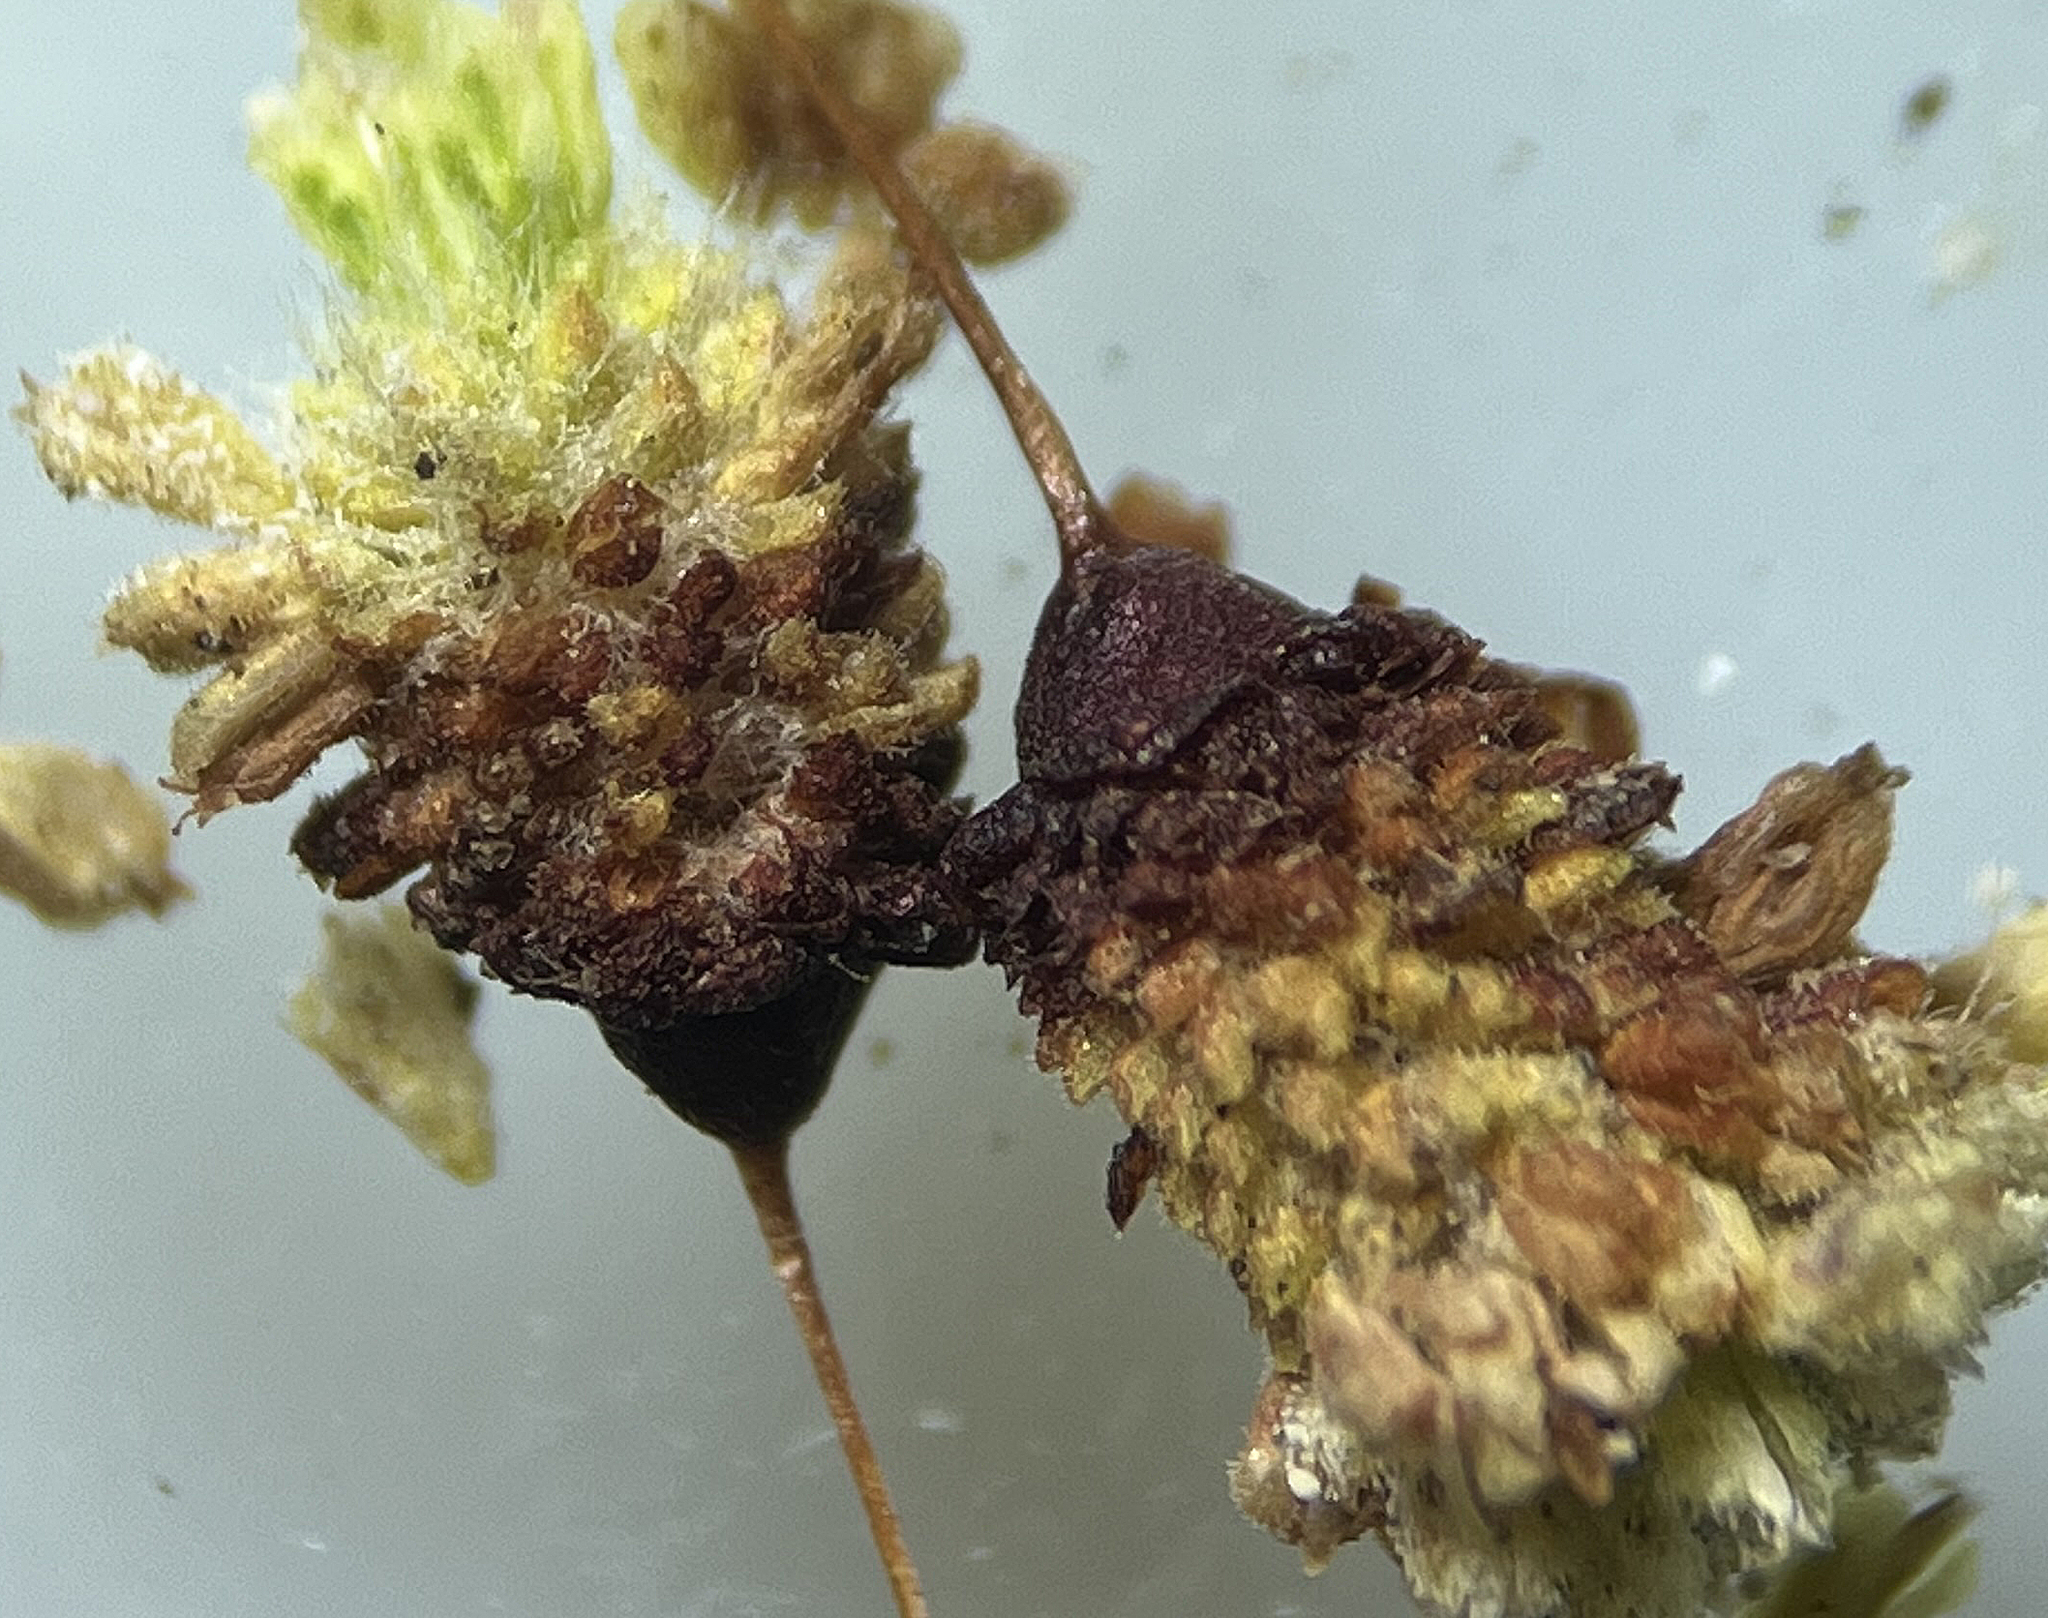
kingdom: Plantae
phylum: Tracheophyta
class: Magnoliopsida
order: Caryophyllales
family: Polygonaceae
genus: Eriogonum
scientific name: Eriogonum maculatum
